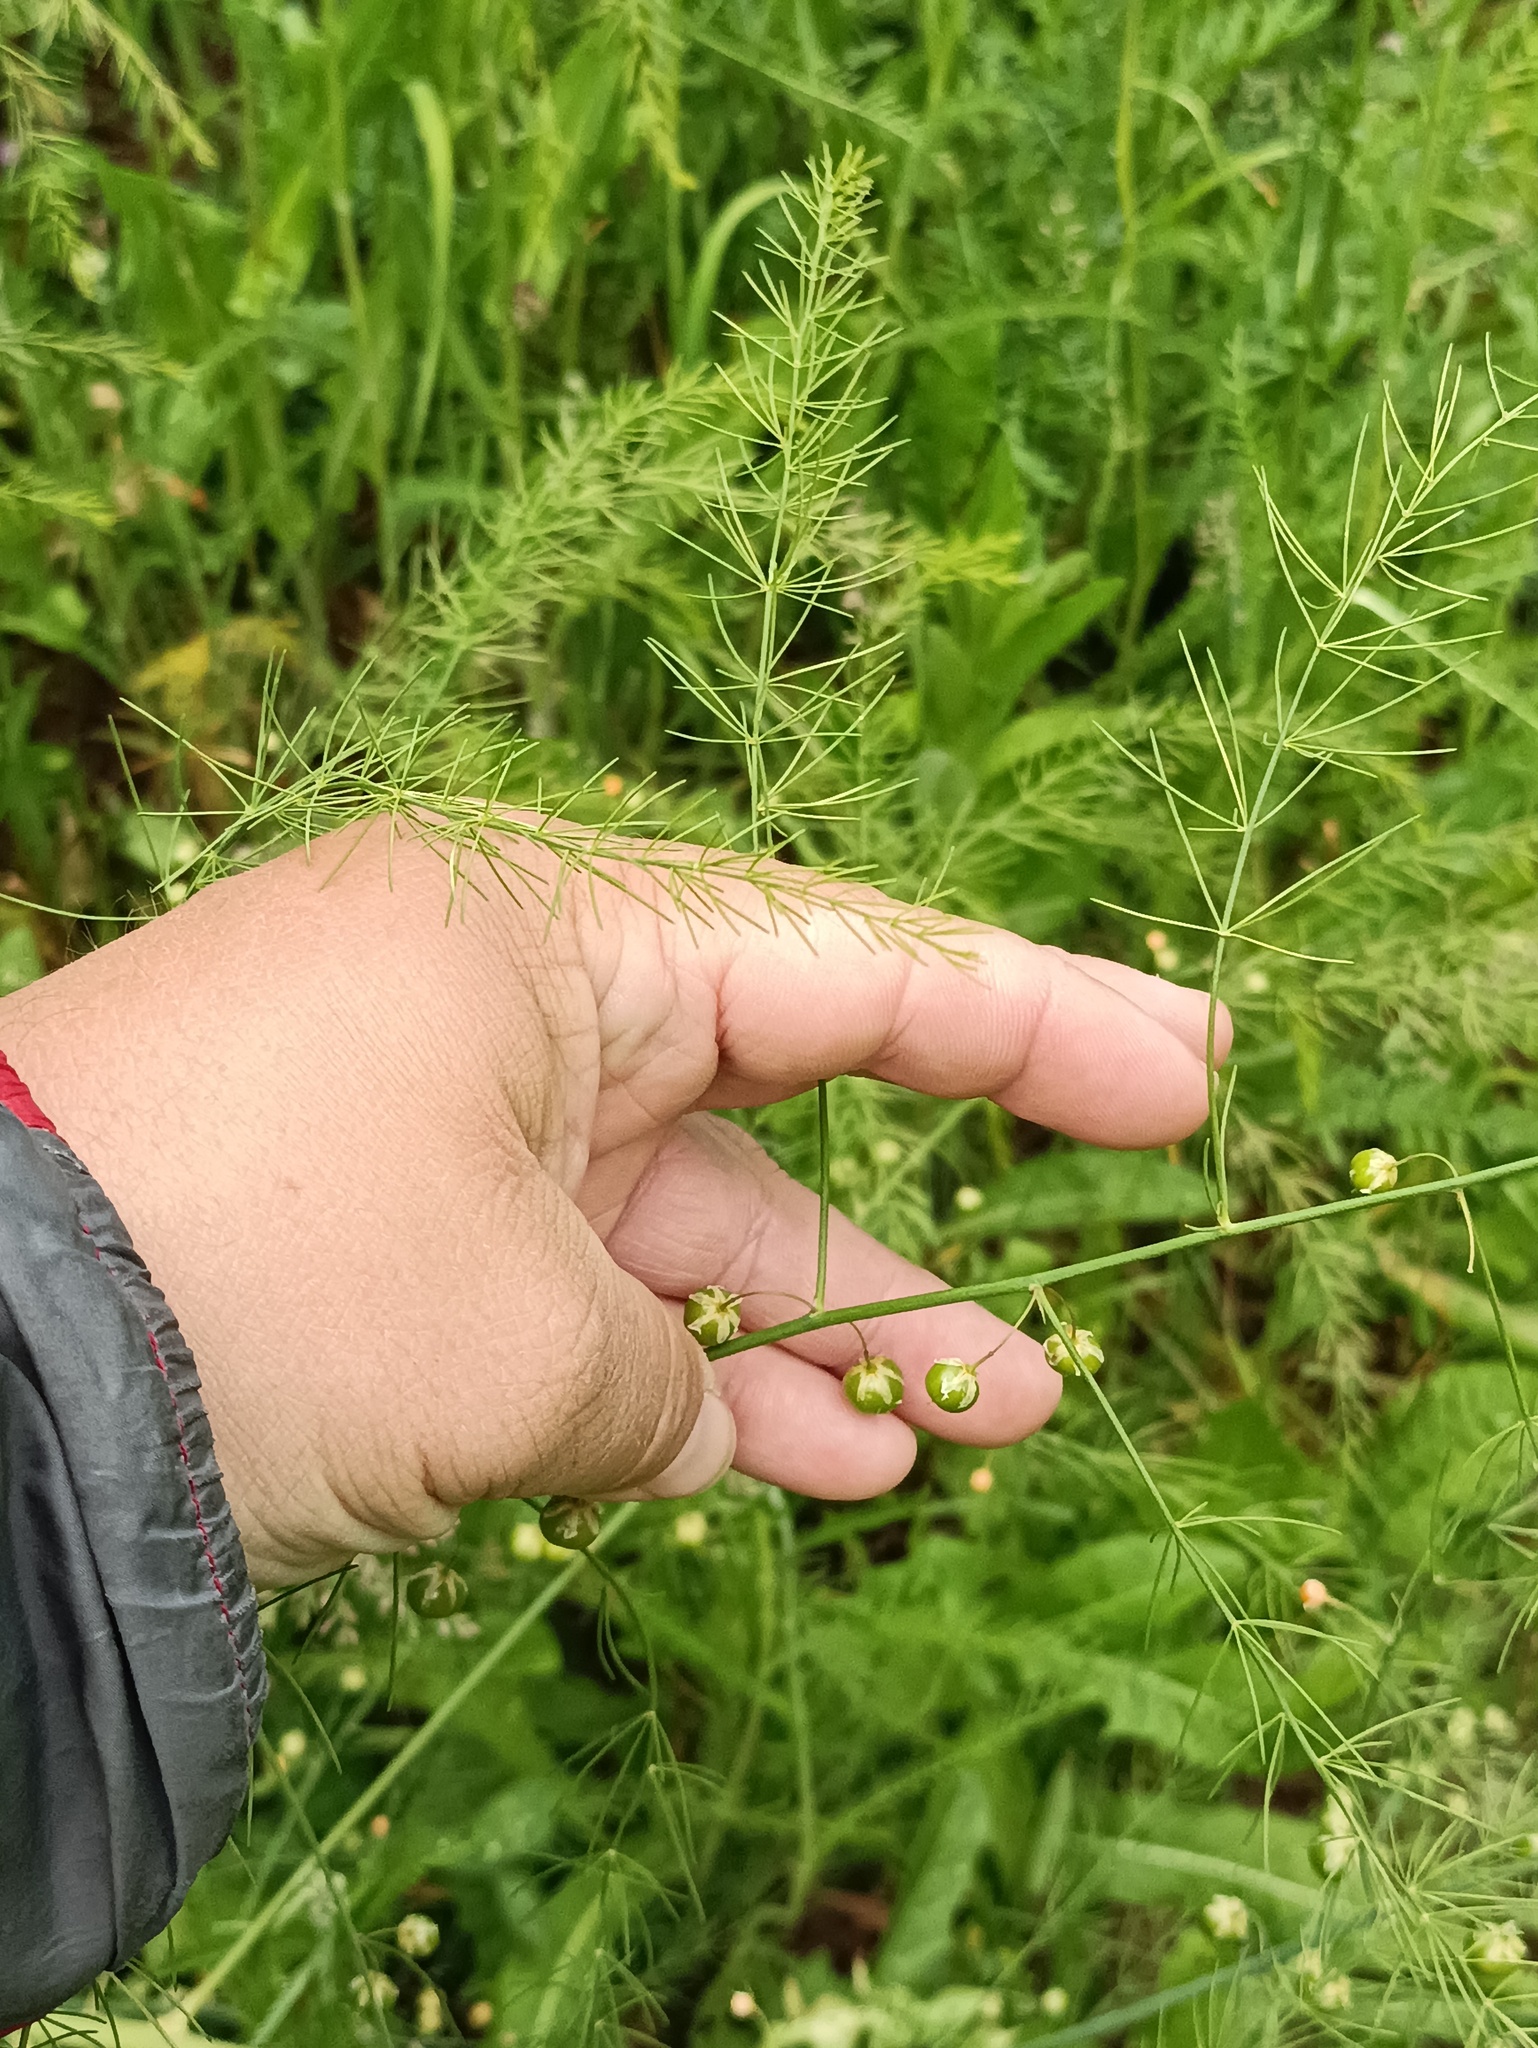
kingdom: Plantae
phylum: Tracheophyta
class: Liliopsida
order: Asparagales
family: Asparagaceae
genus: Asparagus
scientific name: Asparagus officinalis
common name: Garden asparagus
